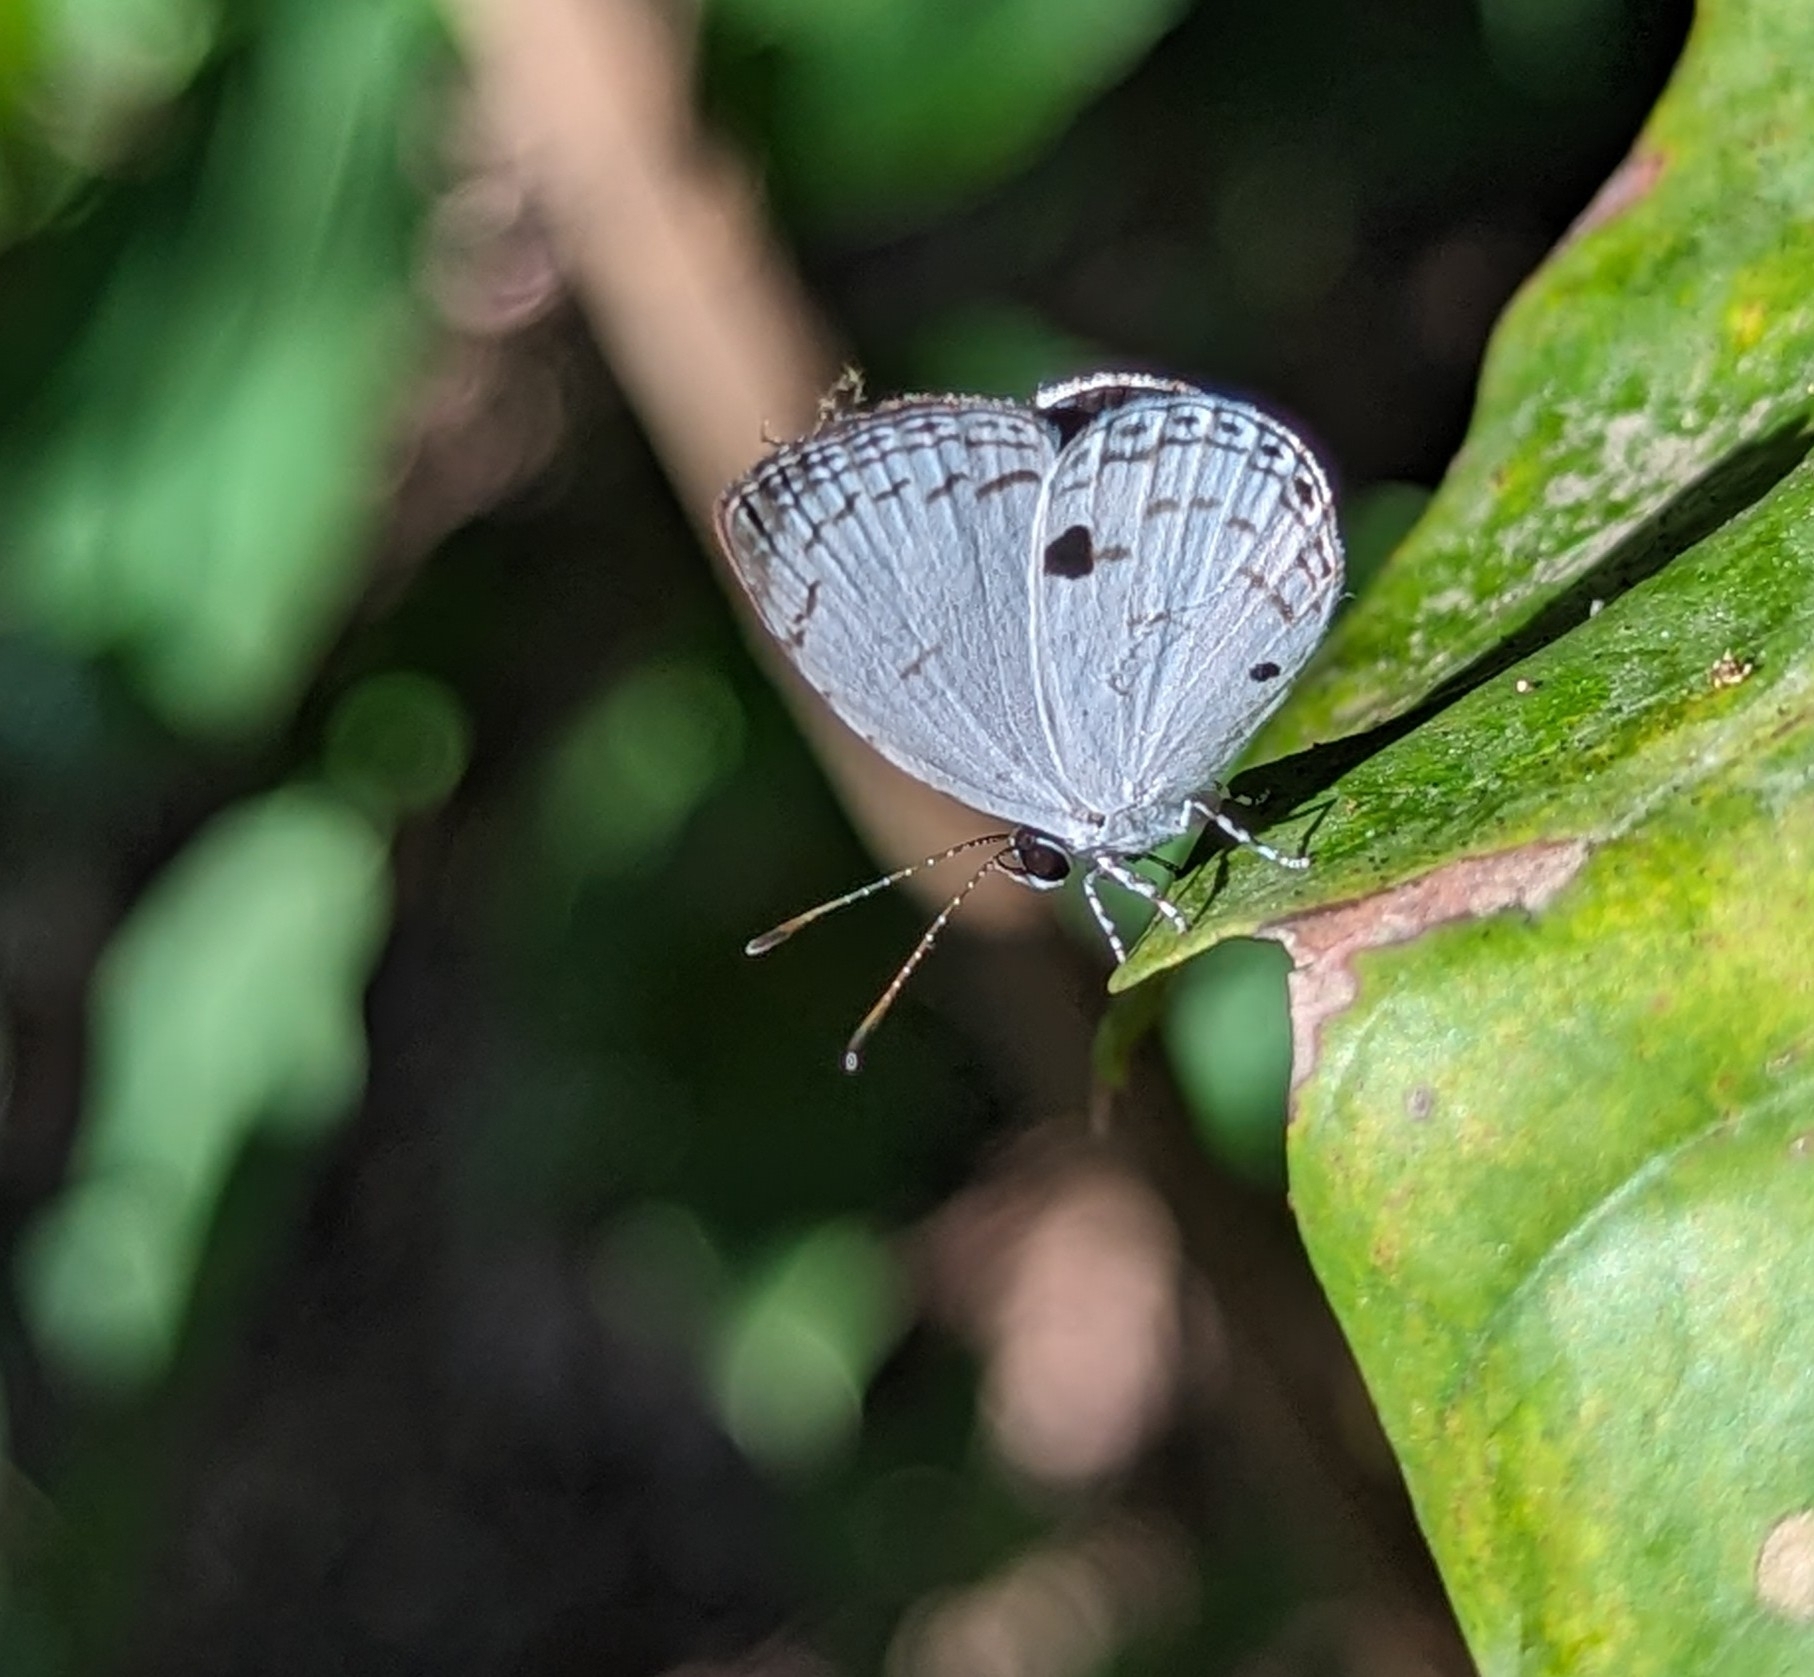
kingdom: Animalia
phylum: Arthropoda
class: Insecta
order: Lepidoptera
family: Lycaenidae
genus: Neopithecops
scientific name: Neopithecops zalmora
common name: Quaker
